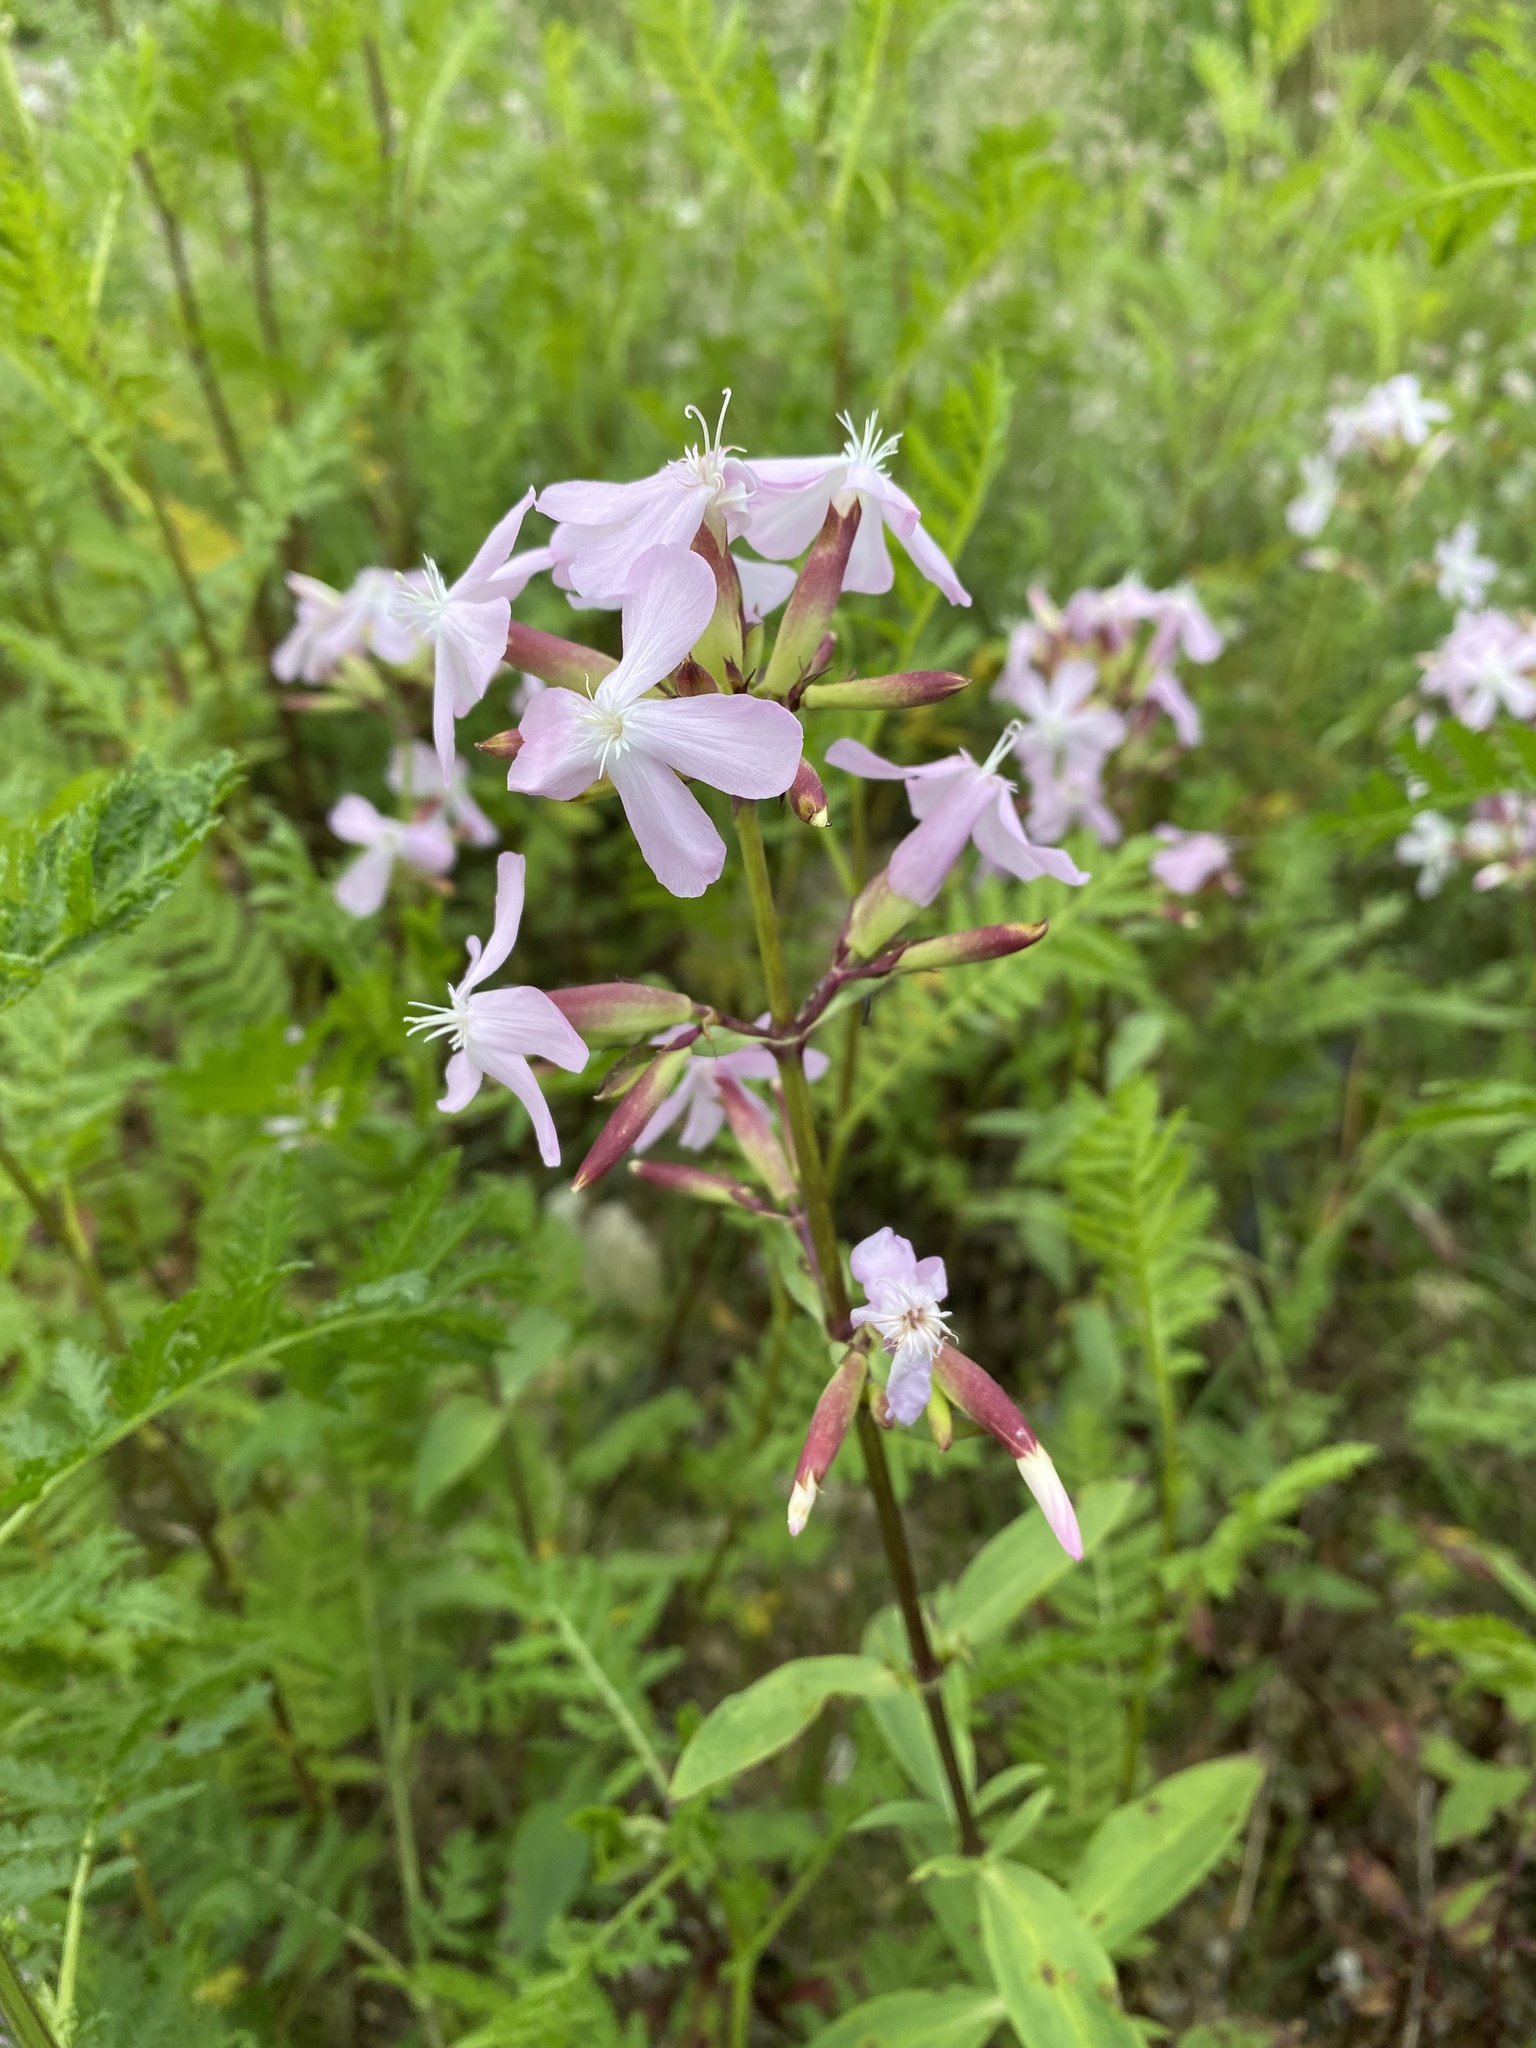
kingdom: Plantae
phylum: Tracheophyta
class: Magnoliopsida
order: Caryophyllales
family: Caryophyllaceae
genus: Saponaria
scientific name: Saponaria officinalis
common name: Soapwort
